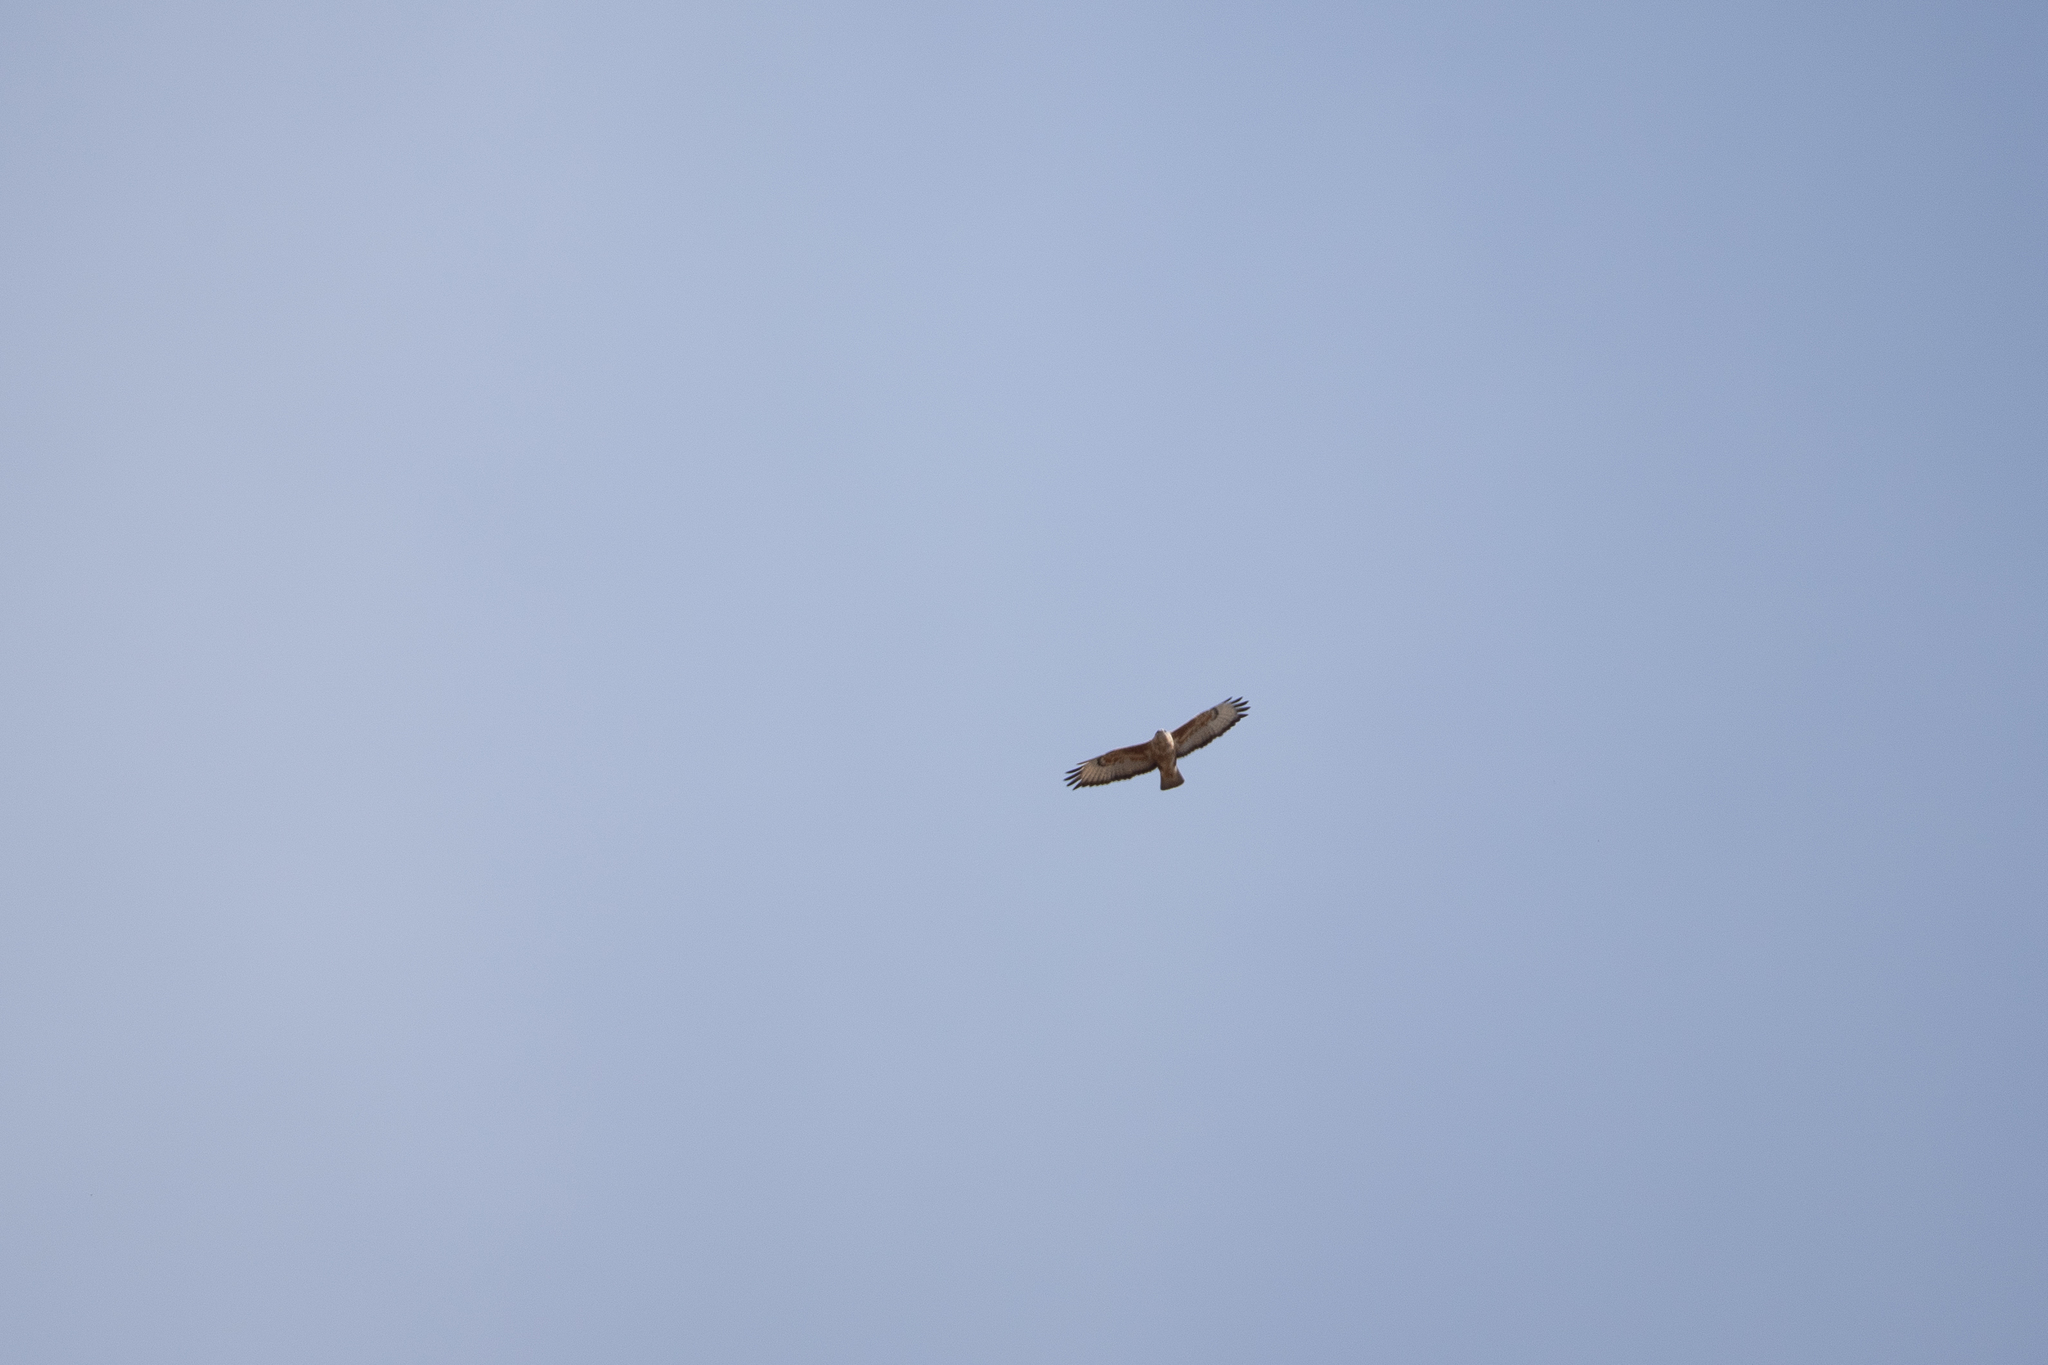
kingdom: Animalia
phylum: Chordata
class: Aves
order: Accipitriformes
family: Accipitridae
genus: Buteo
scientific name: Buteo buteo
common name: Common buzzard
